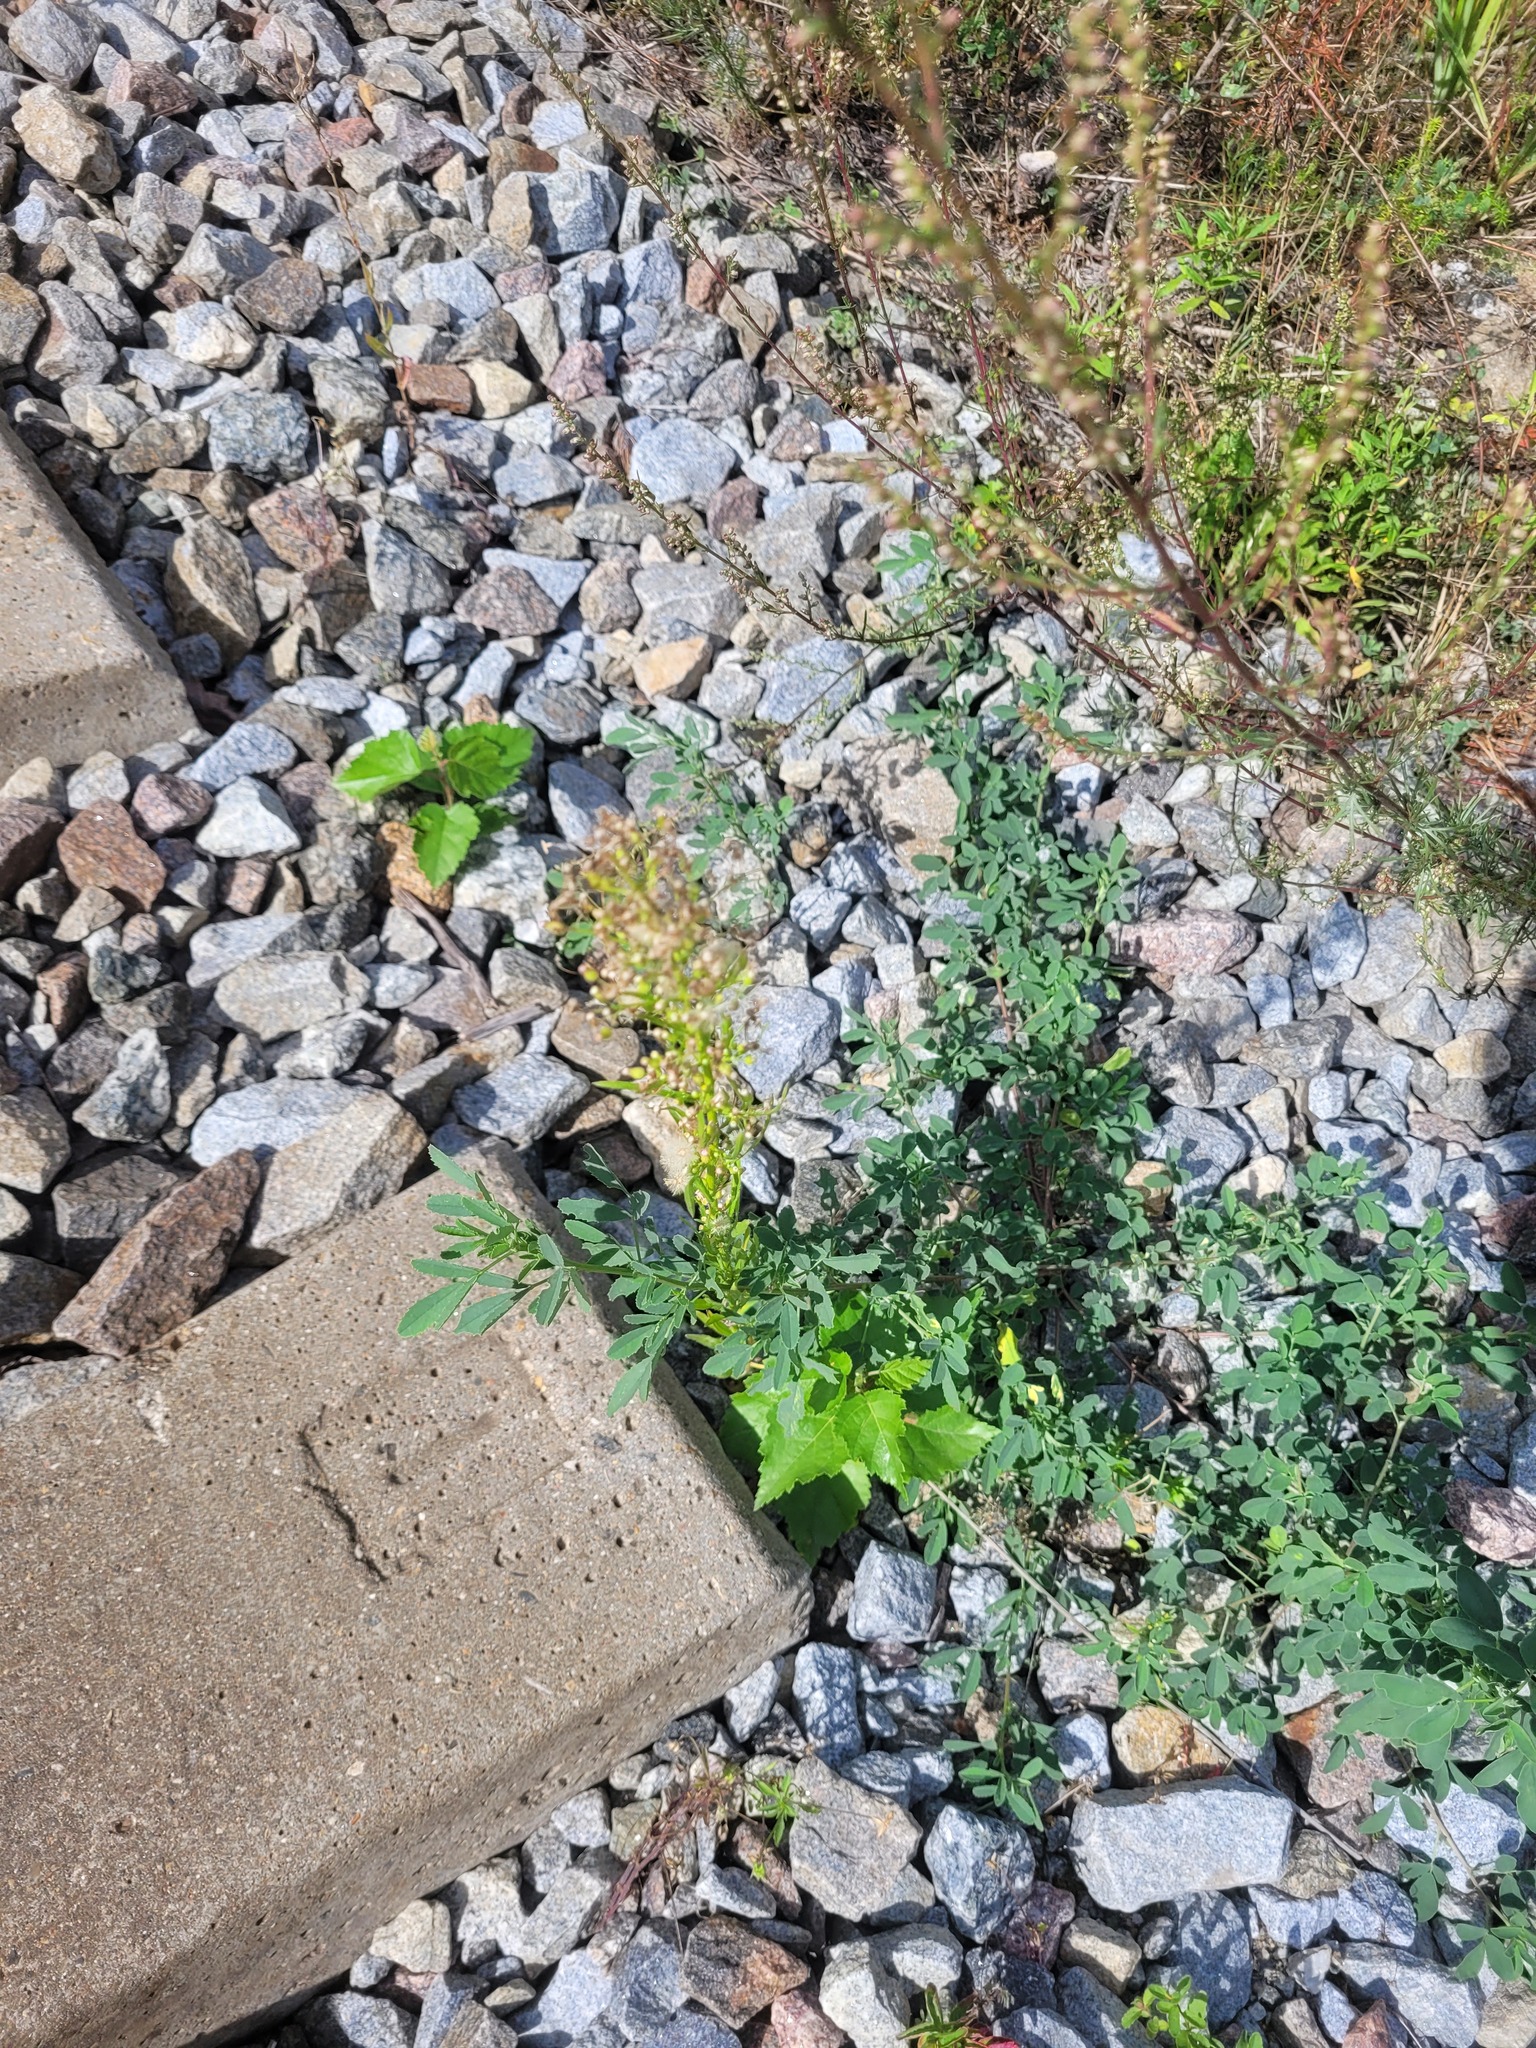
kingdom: Plantae
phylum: Tracheophyta
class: Magnoliopsida
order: Asterales
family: Asteraceae
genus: Erigeron
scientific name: Erigeron canadensis
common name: Canadian fleabane
